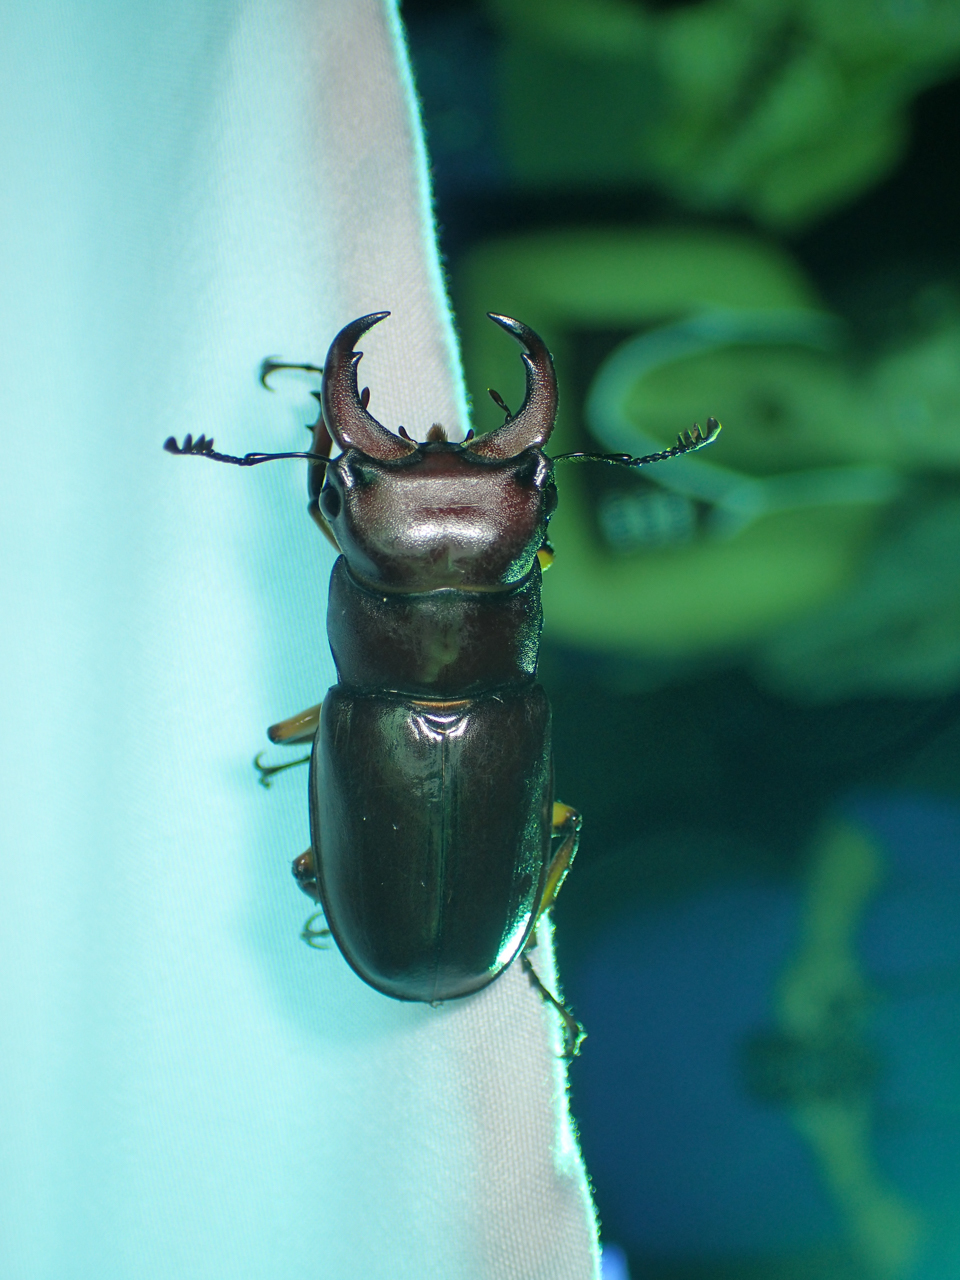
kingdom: Animalia
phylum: Arthropoda
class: Insecta
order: Coleoptera
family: Lucanidae
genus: Lucanus
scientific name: Lucanus capreolus
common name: Stag beetle
